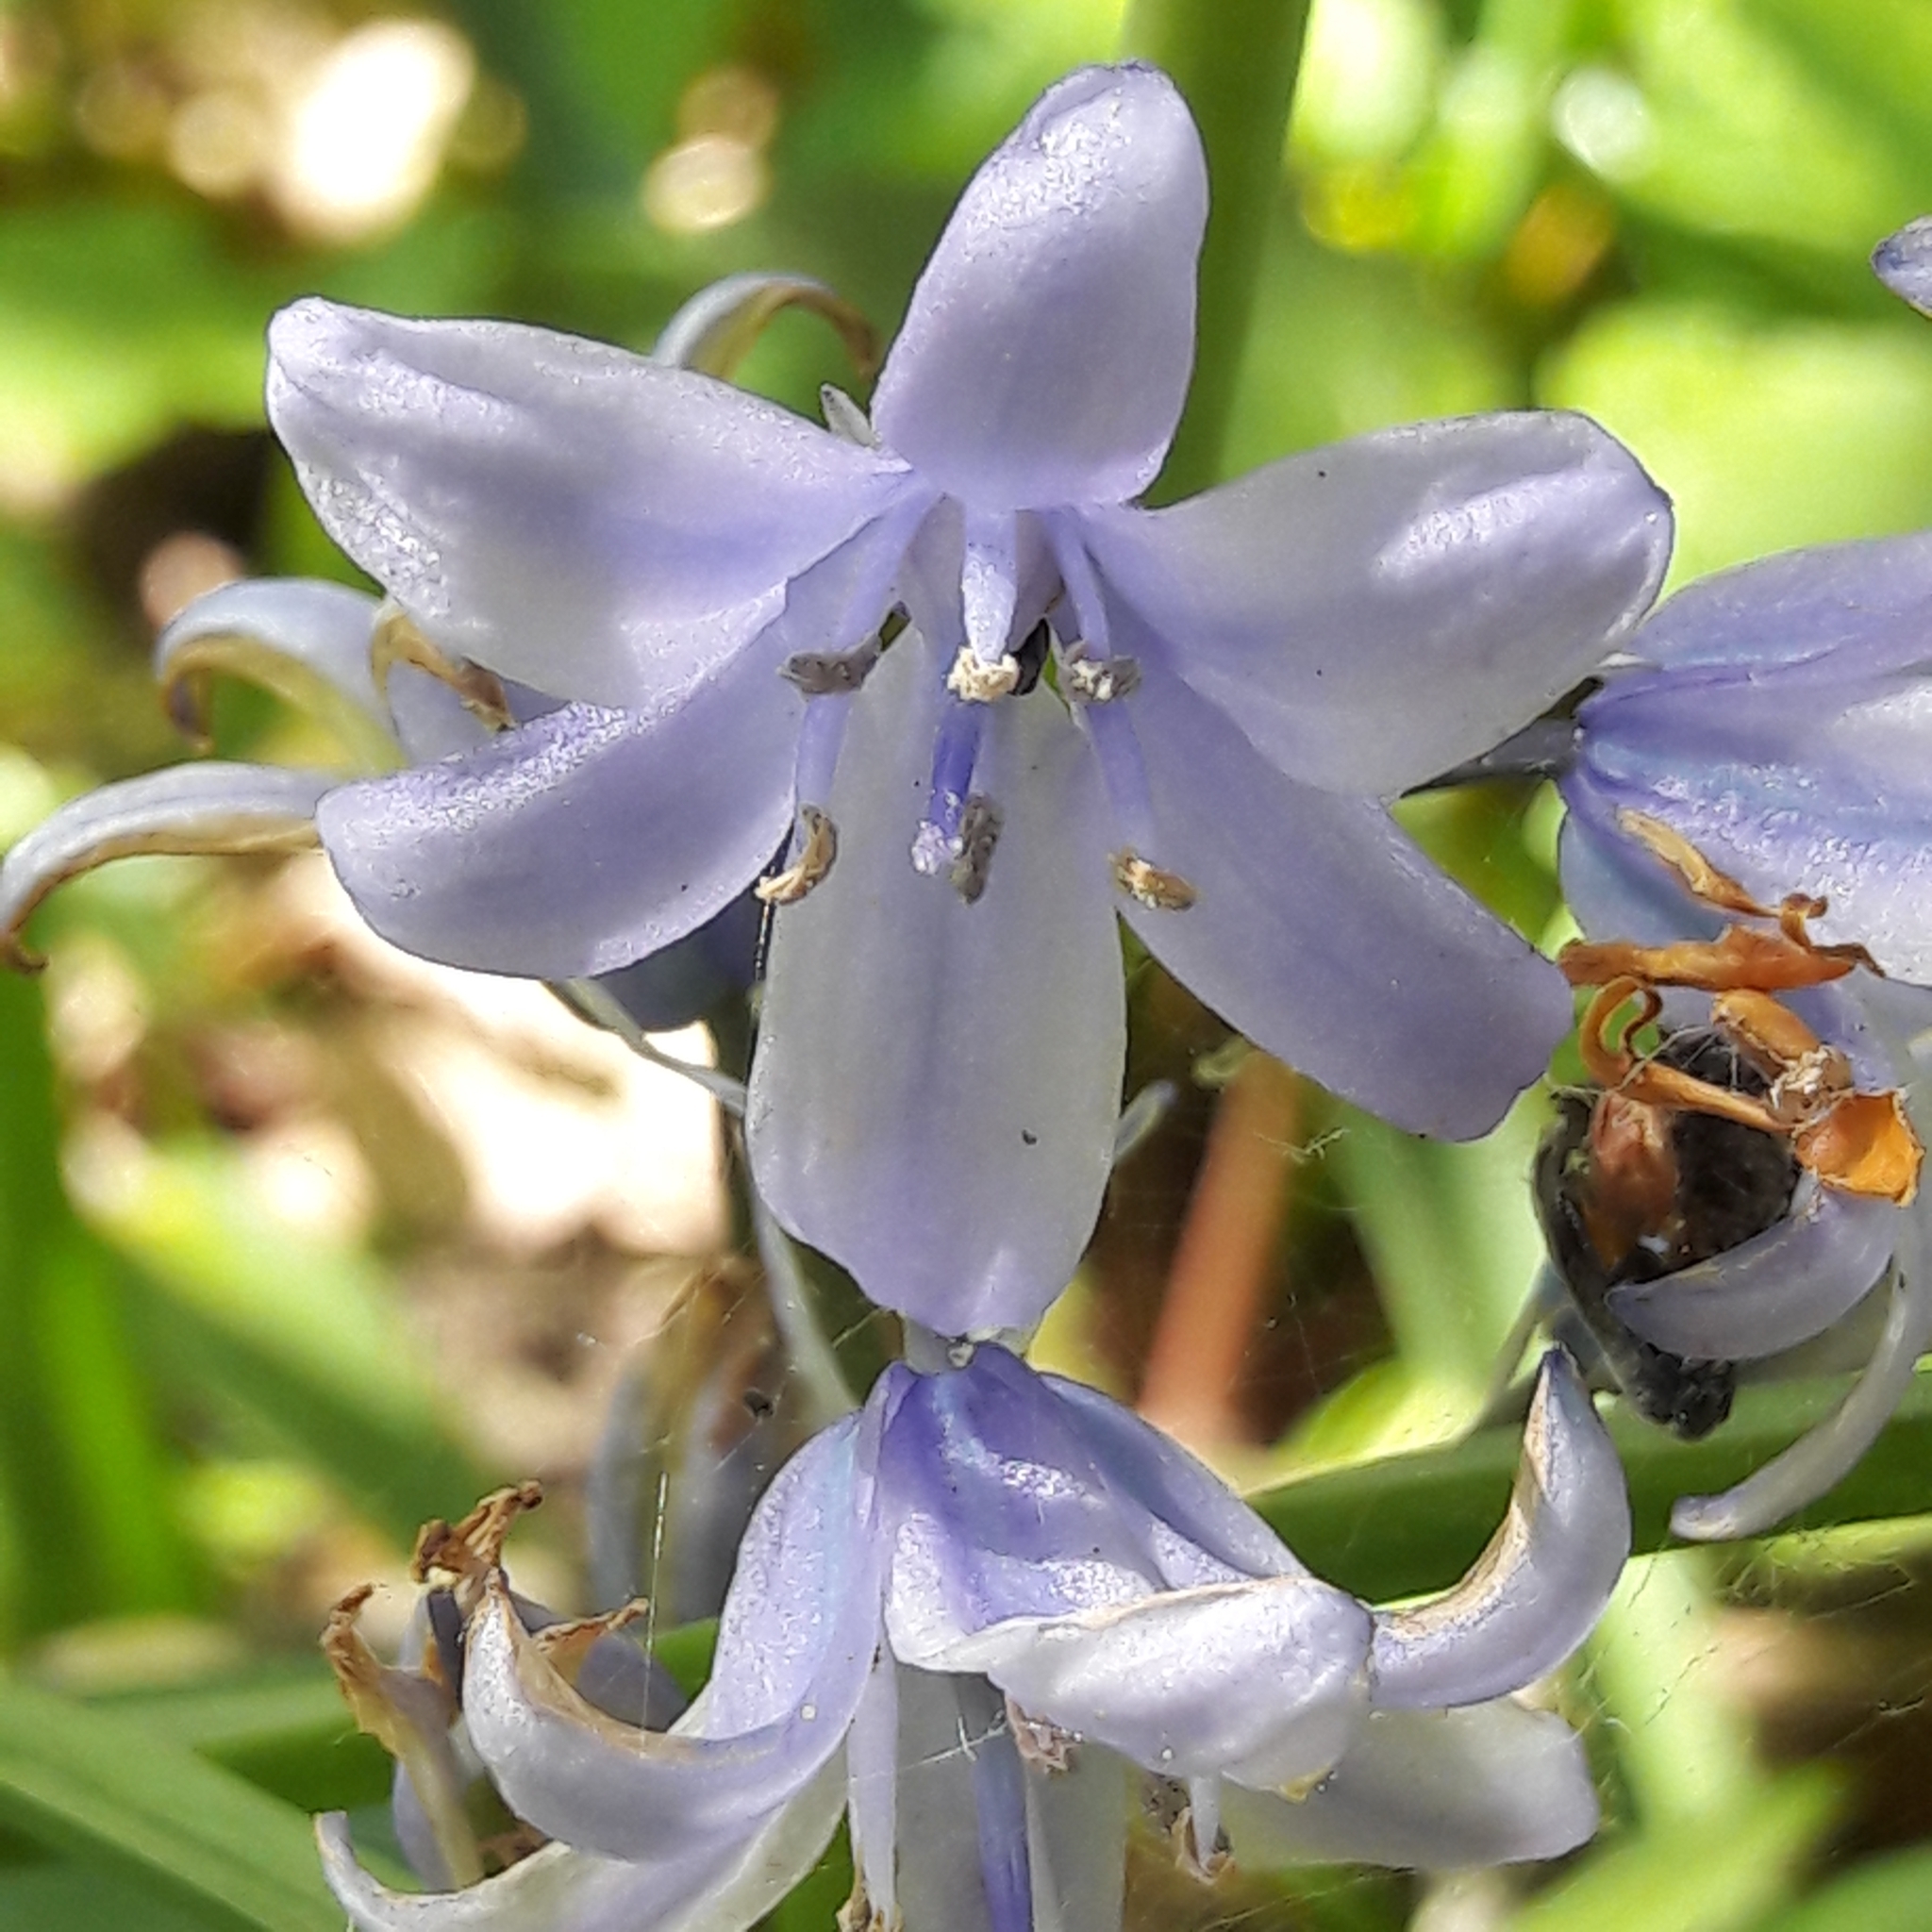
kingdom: Plantae
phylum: Tracheophyta
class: Liliopsida
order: Asparagales
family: Asparagaceae
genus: Hyacinthoides
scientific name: Hyacinthoides massartiana
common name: Hyacinthoides
